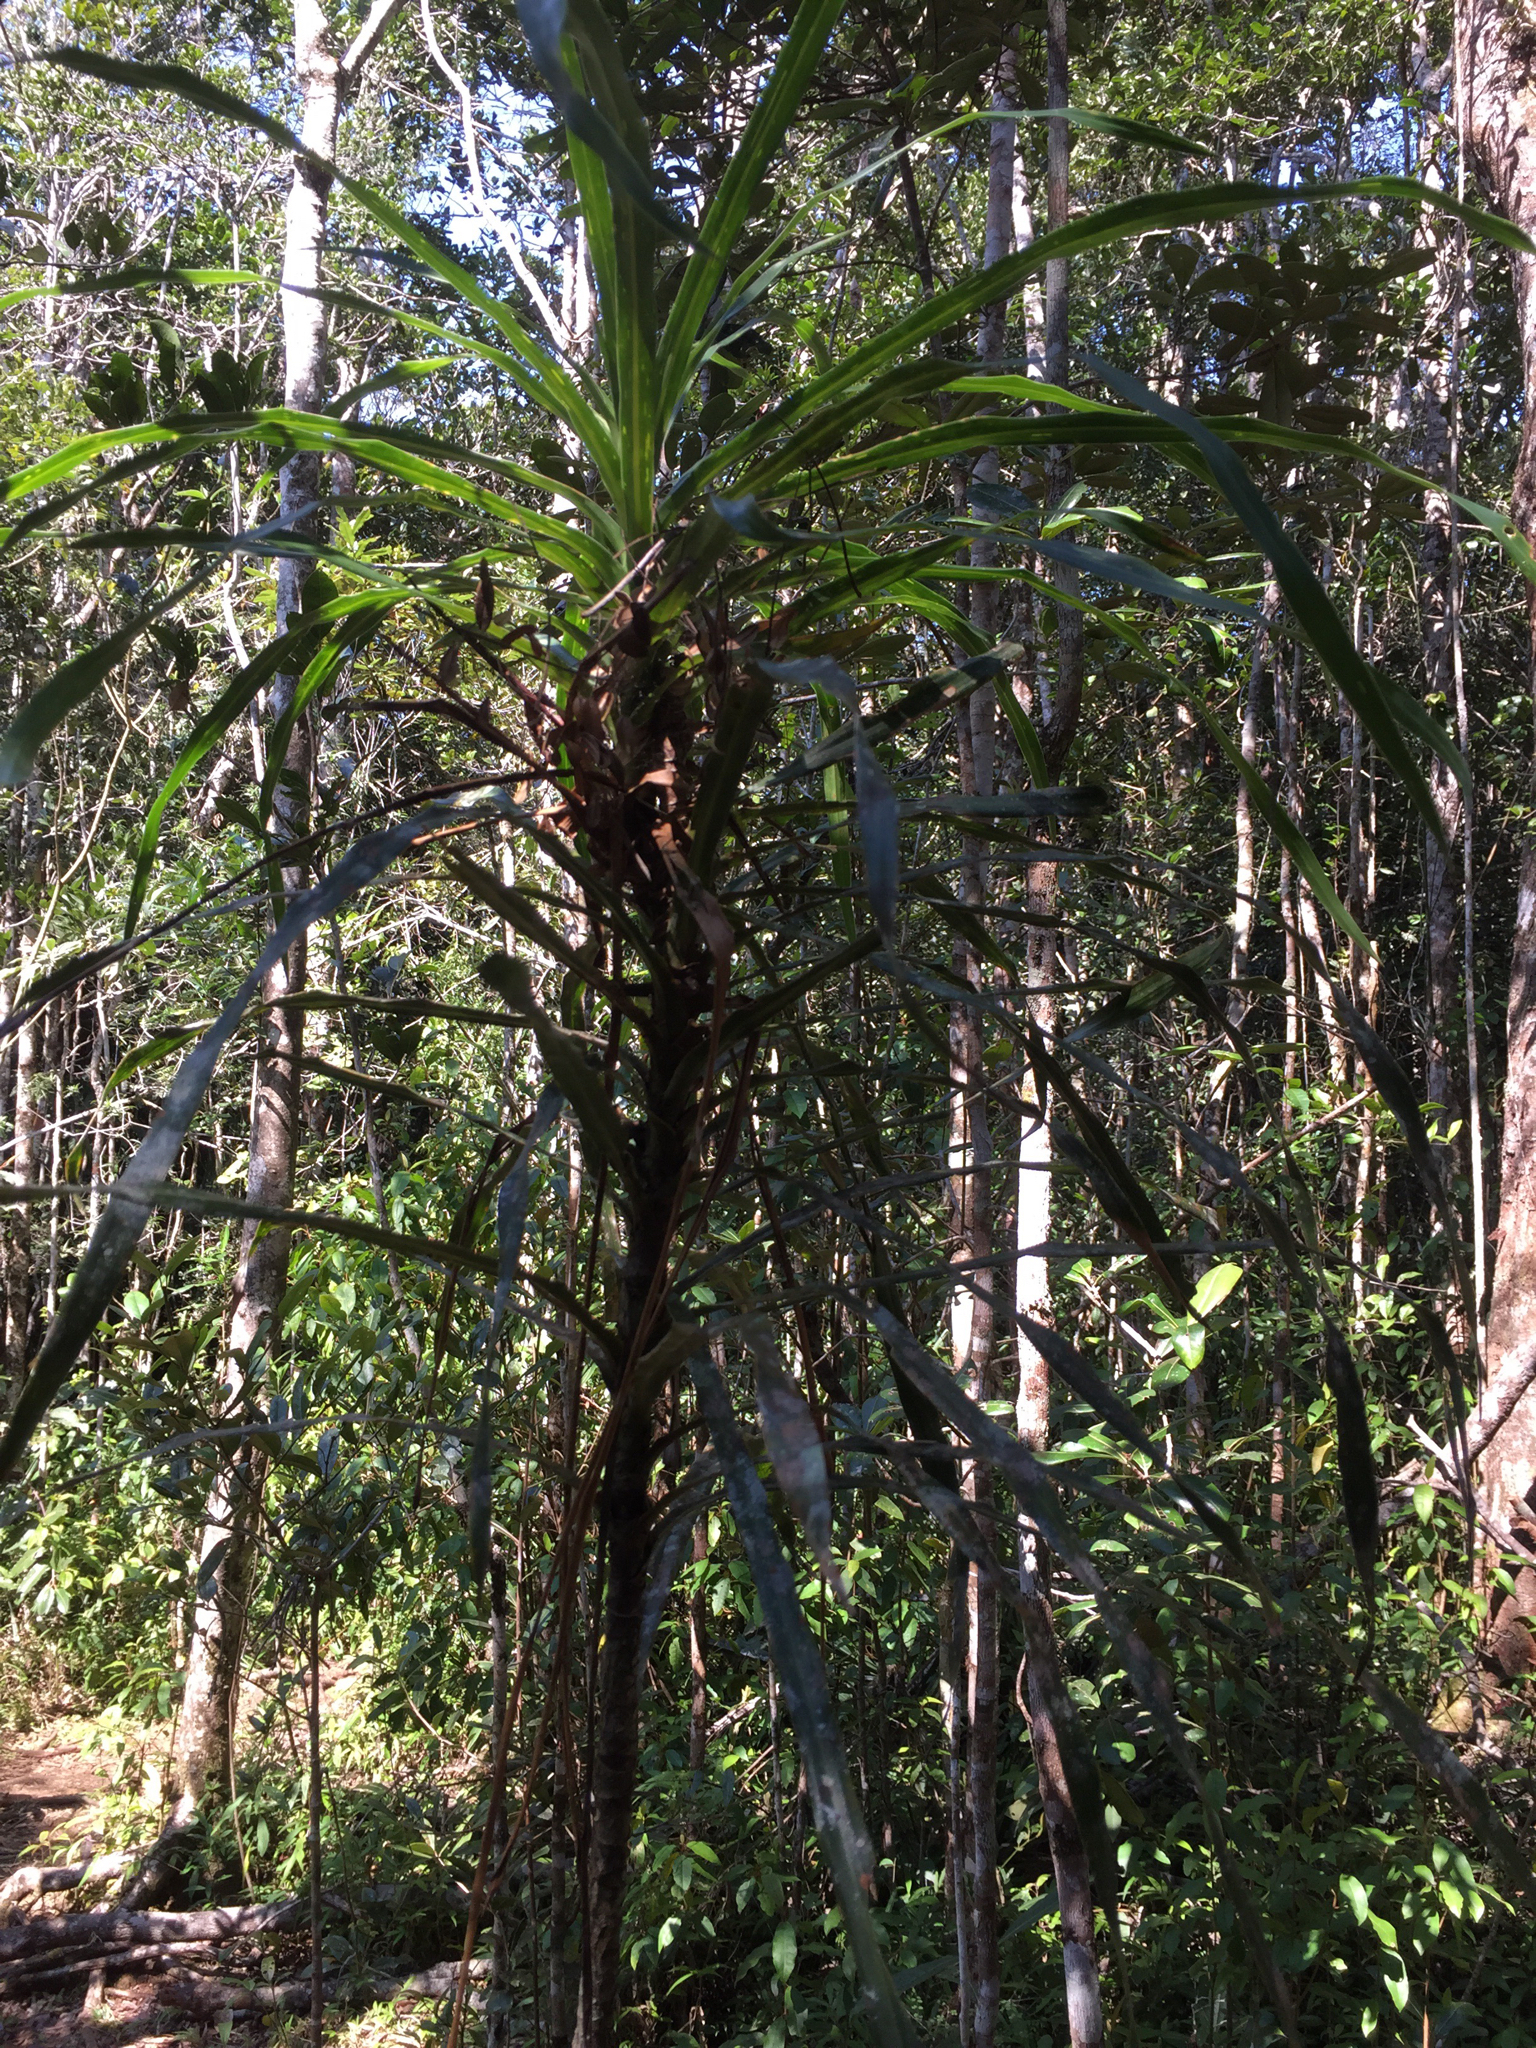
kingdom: Plantae
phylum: Tracheophyta
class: Liliopsida
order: Asparagales
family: Asparagaceae
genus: Dracaena
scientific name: Dracaena xiphophylla
